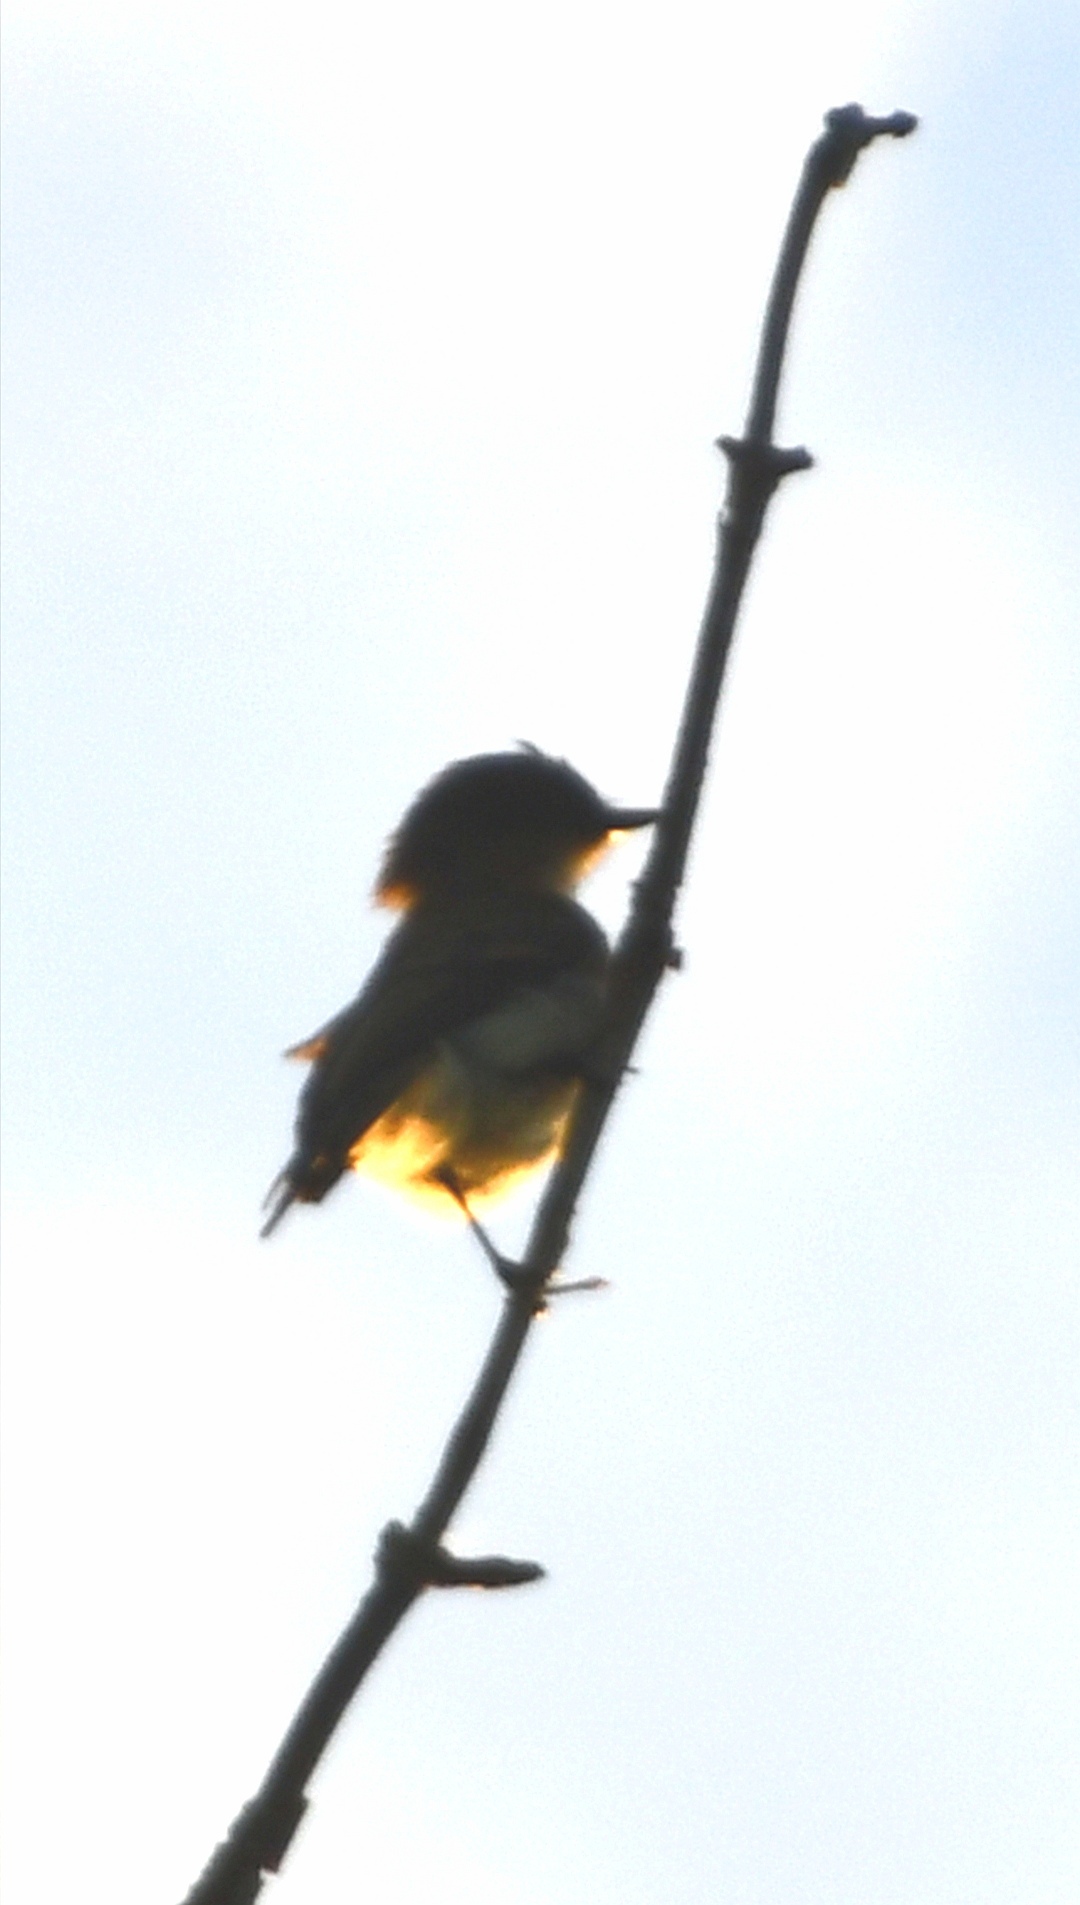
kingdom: Animalia
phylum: Chordata
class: Aves
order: Passeriformes
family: Tyrannidae
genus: Sayornis
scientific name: Sayornis phoebe
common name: Eastern phoebe
